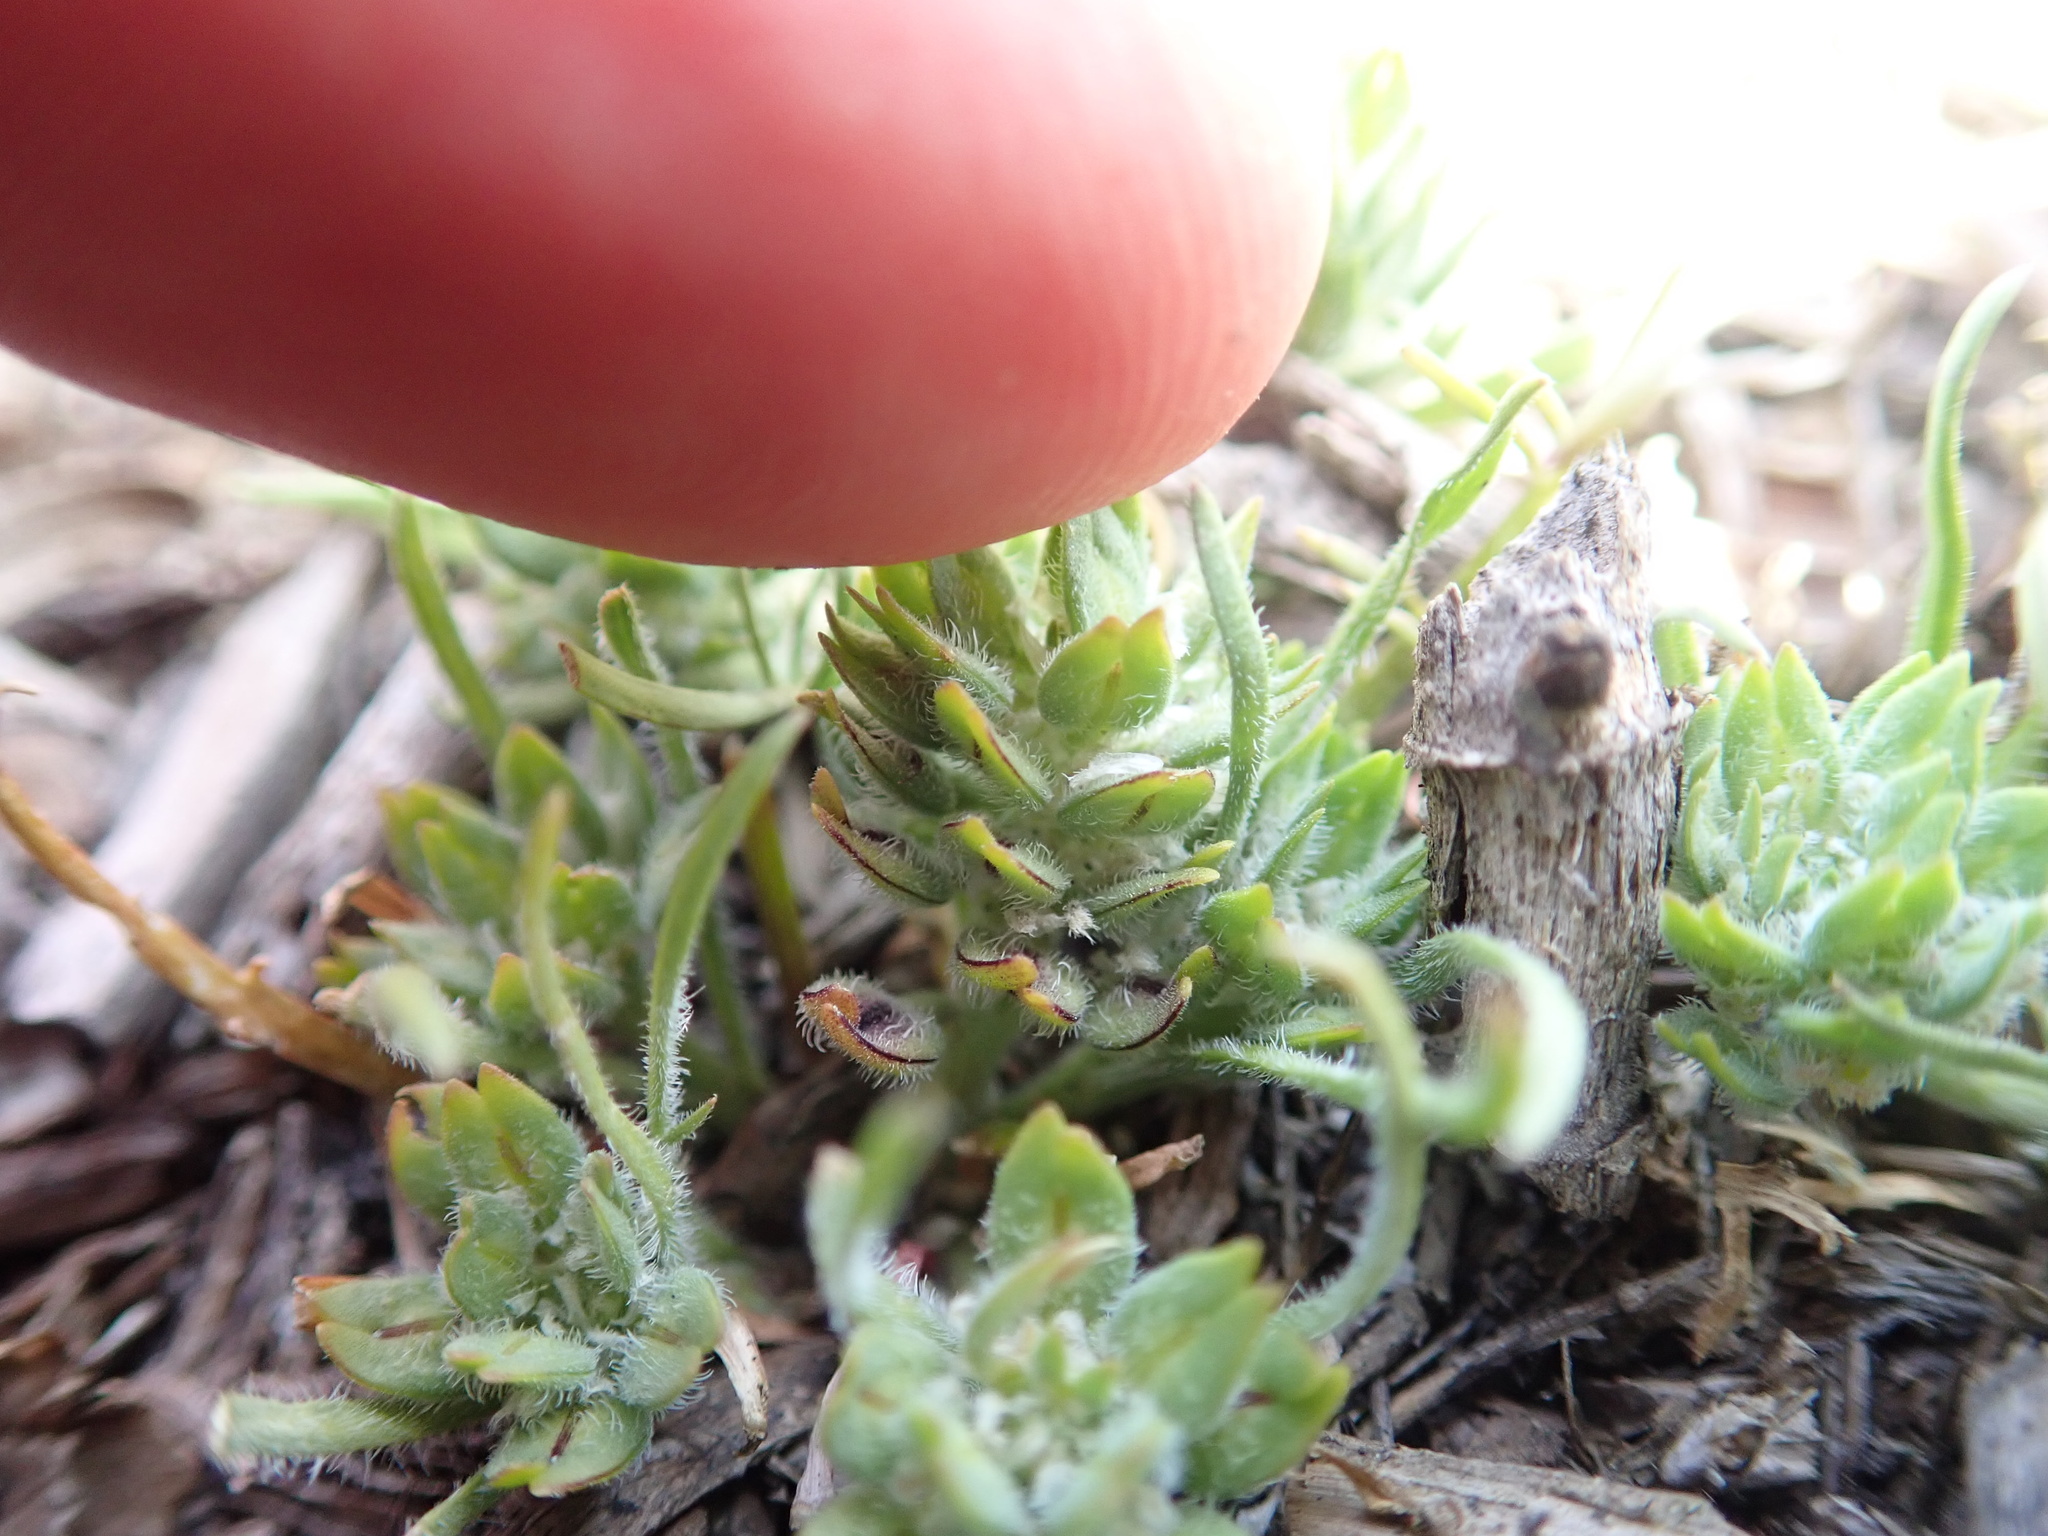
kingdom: Plantae
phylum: Tracheophyta
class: Magnoliopsida
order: Brassicales
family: Brassicaceae
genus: Lepidium
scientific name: Lepidium latipes
